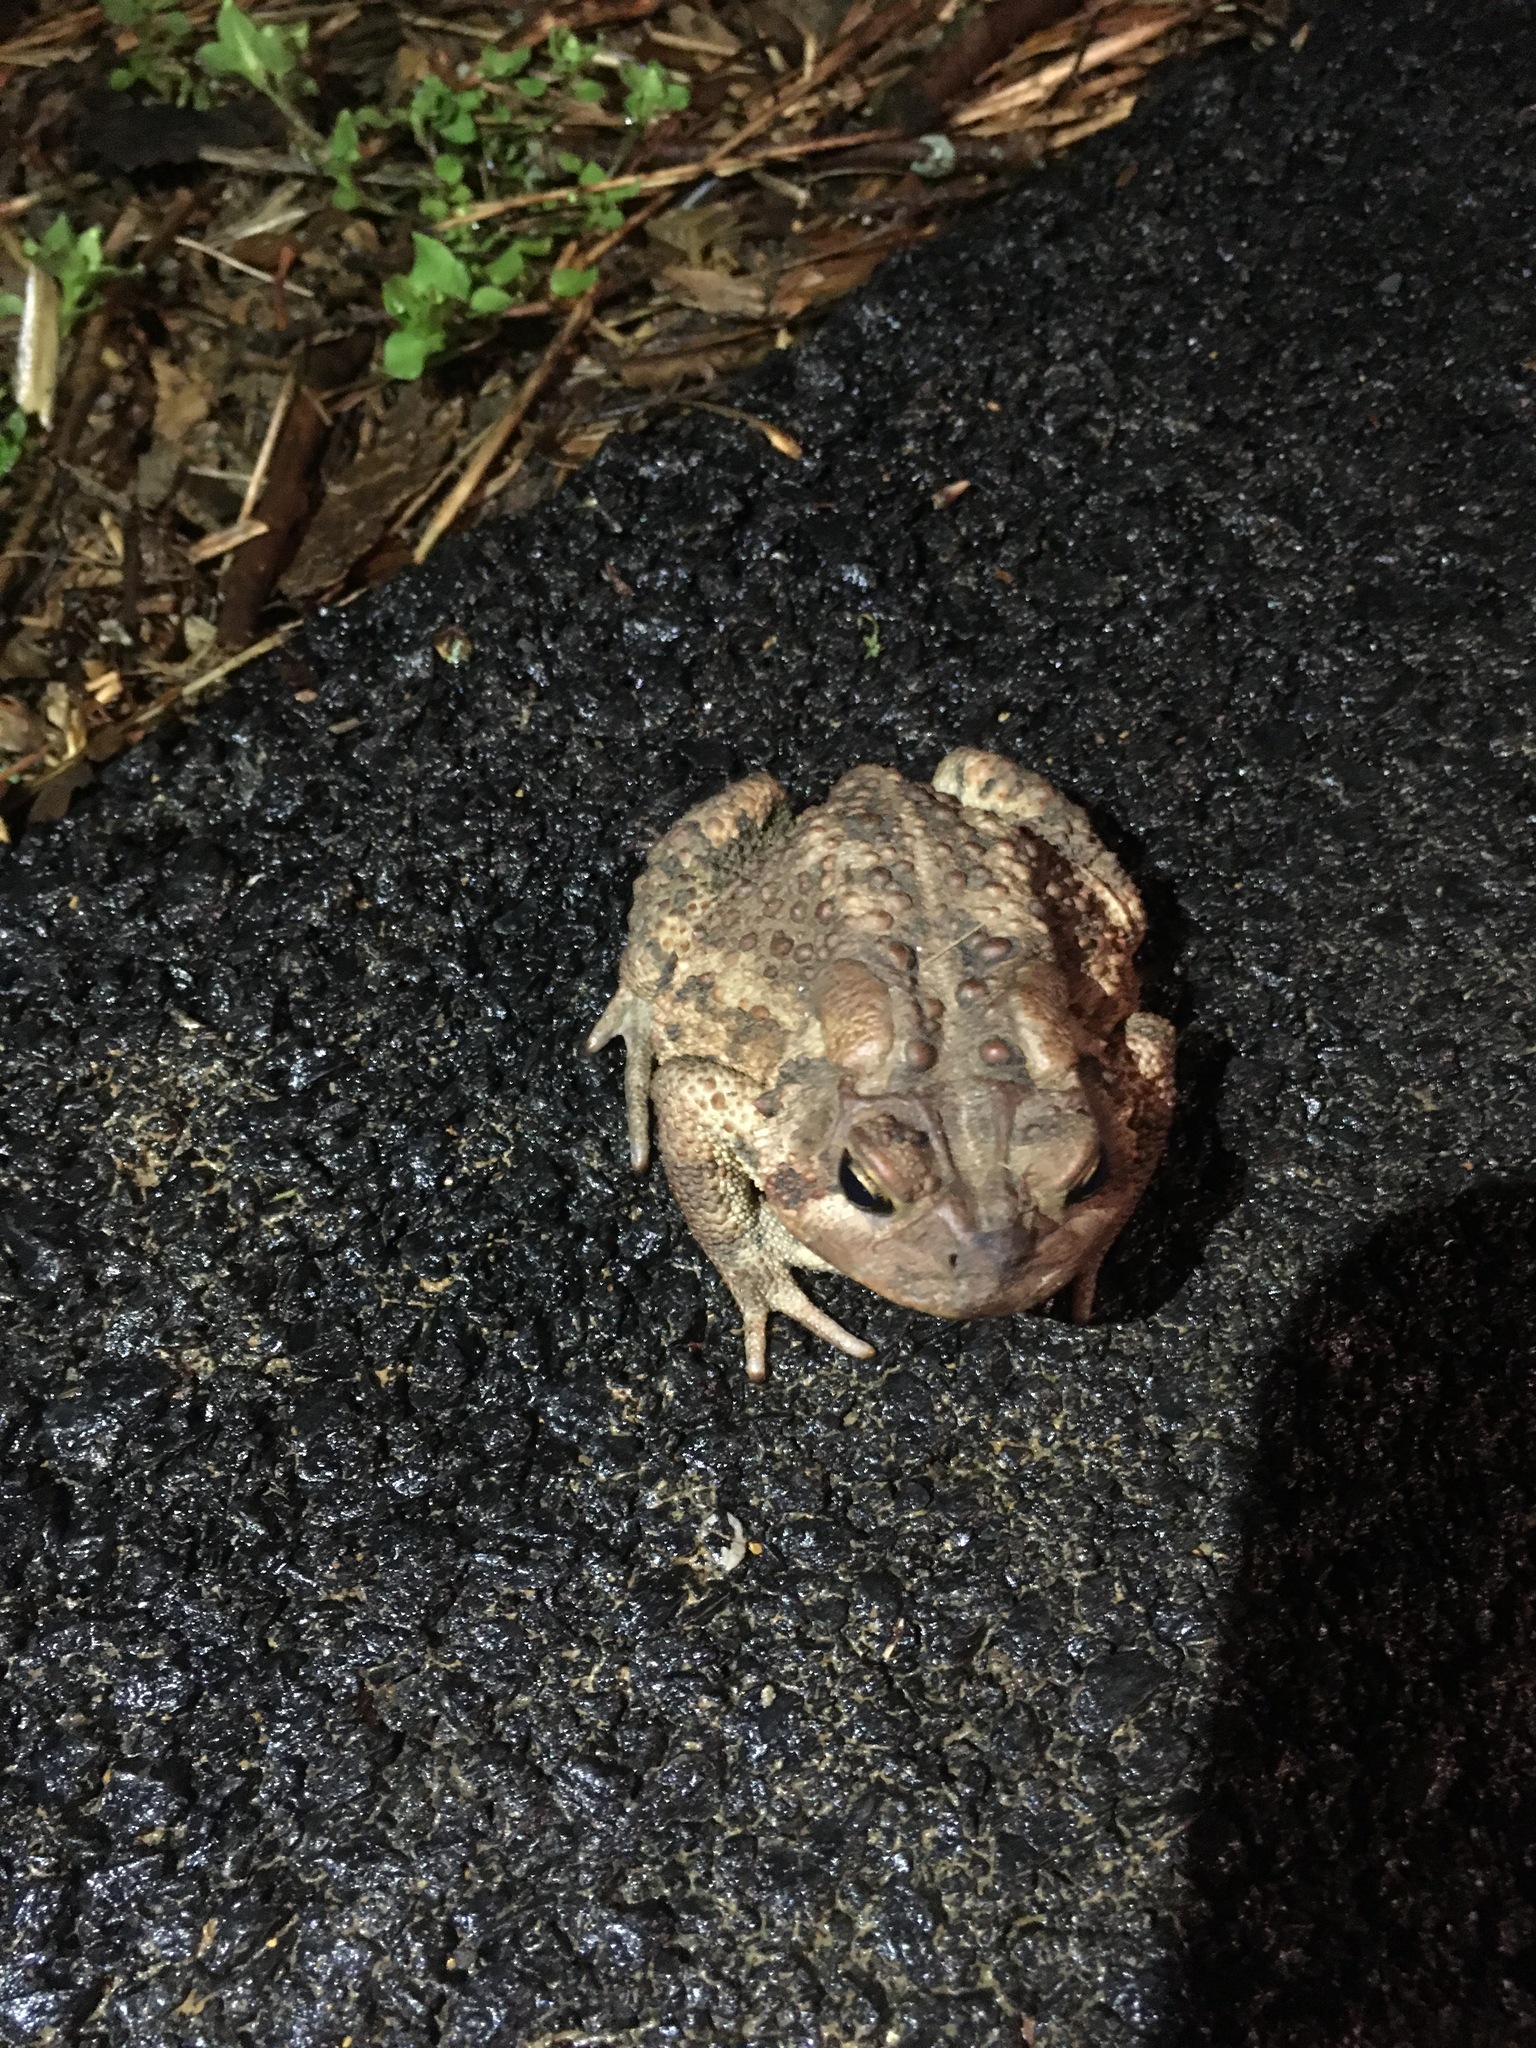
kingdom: Animalia
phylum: Chordata
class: Amphibia
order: Anura
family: Bufonidae
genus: Anaxyrus
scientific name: Anaxyrus americanus
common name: American toad
